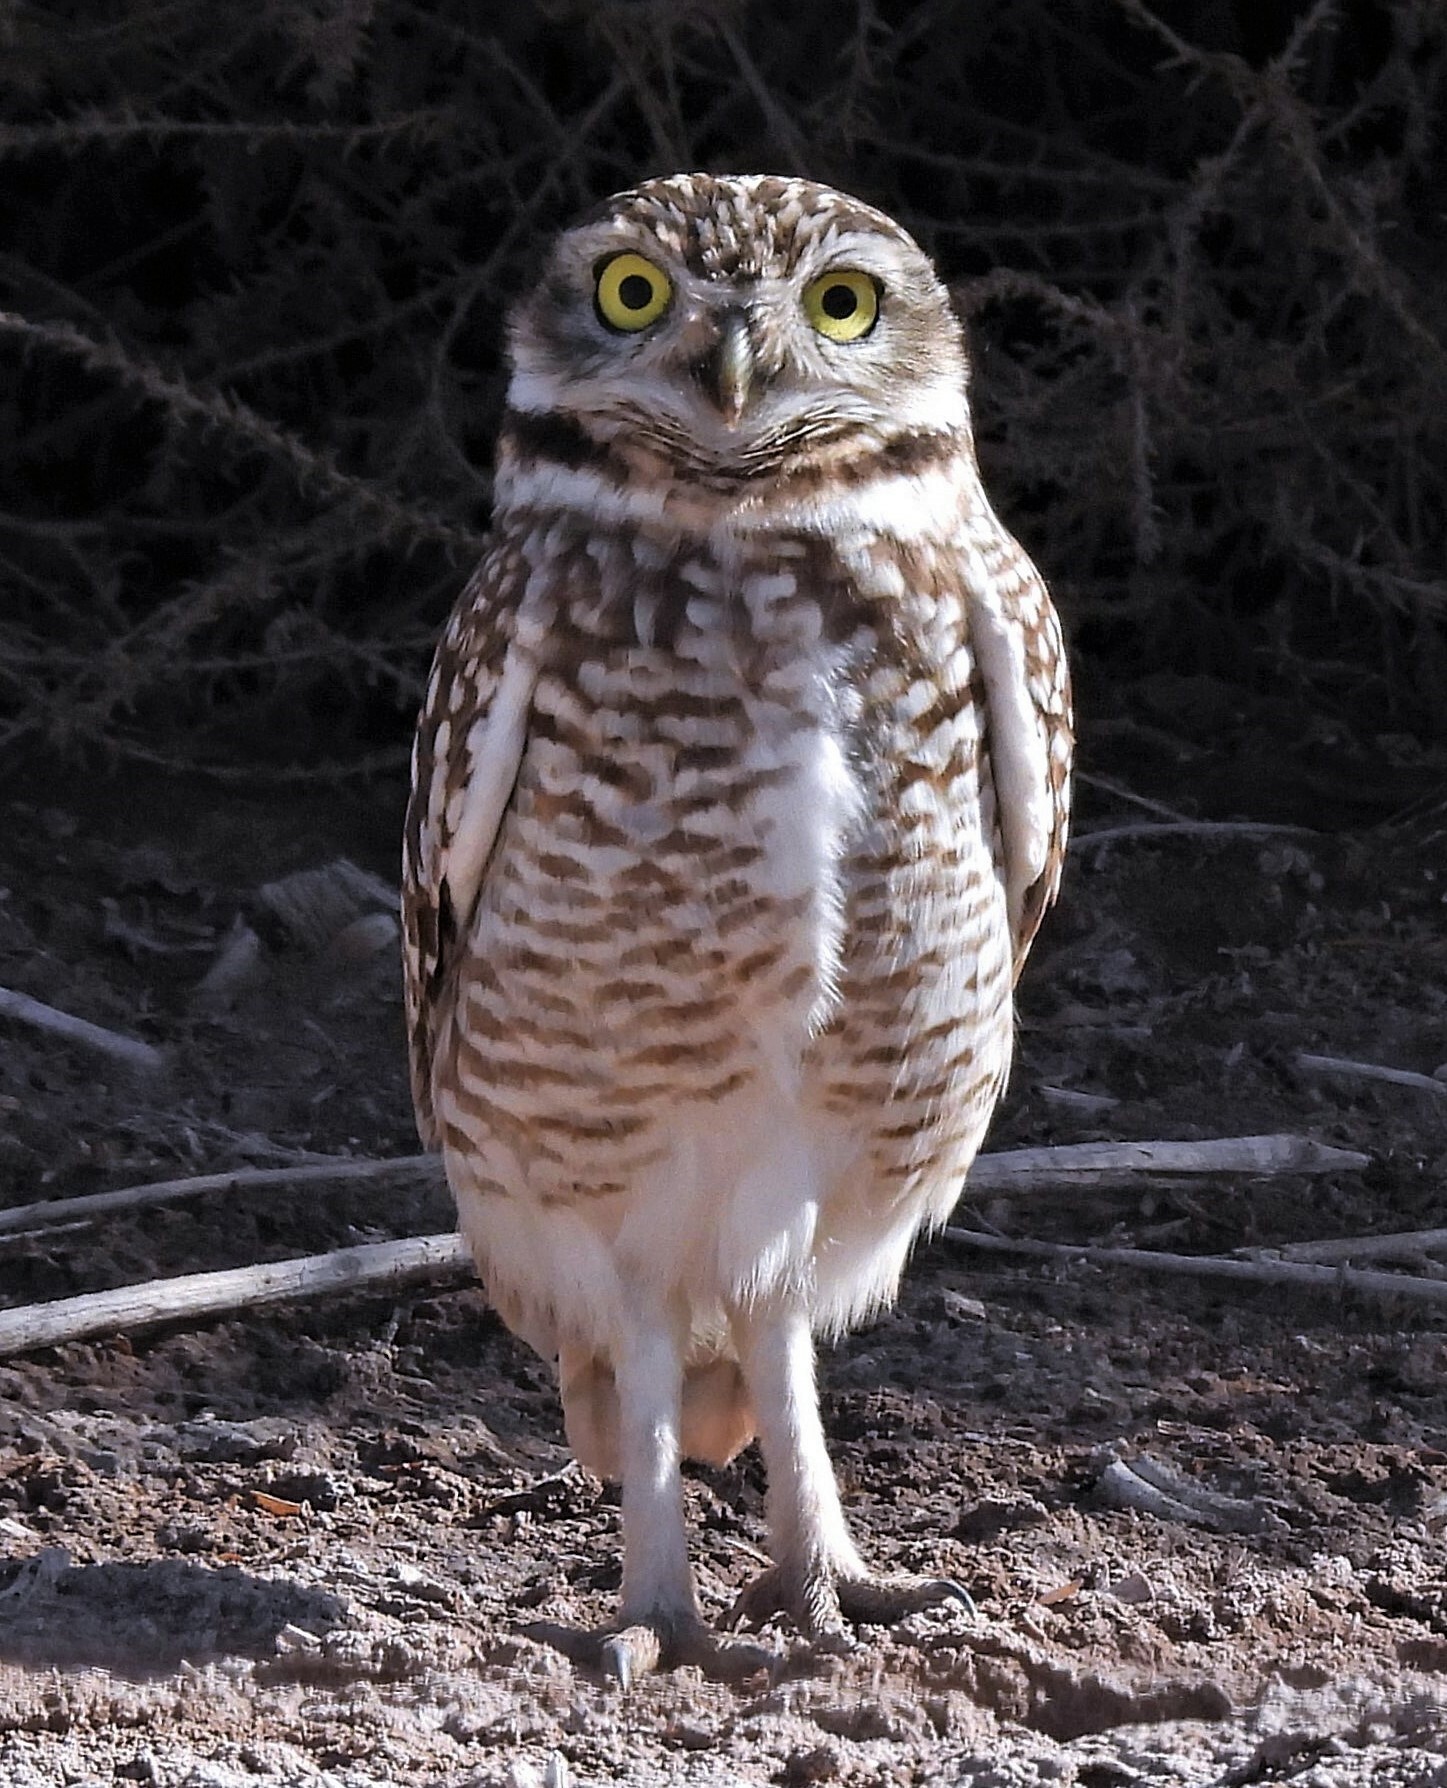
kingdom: Animalia
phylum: Chordata
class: Aves
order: Strigiformes
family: Strigidae
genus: Athene
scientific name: Athene cunicularia
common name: Burrowing owl
